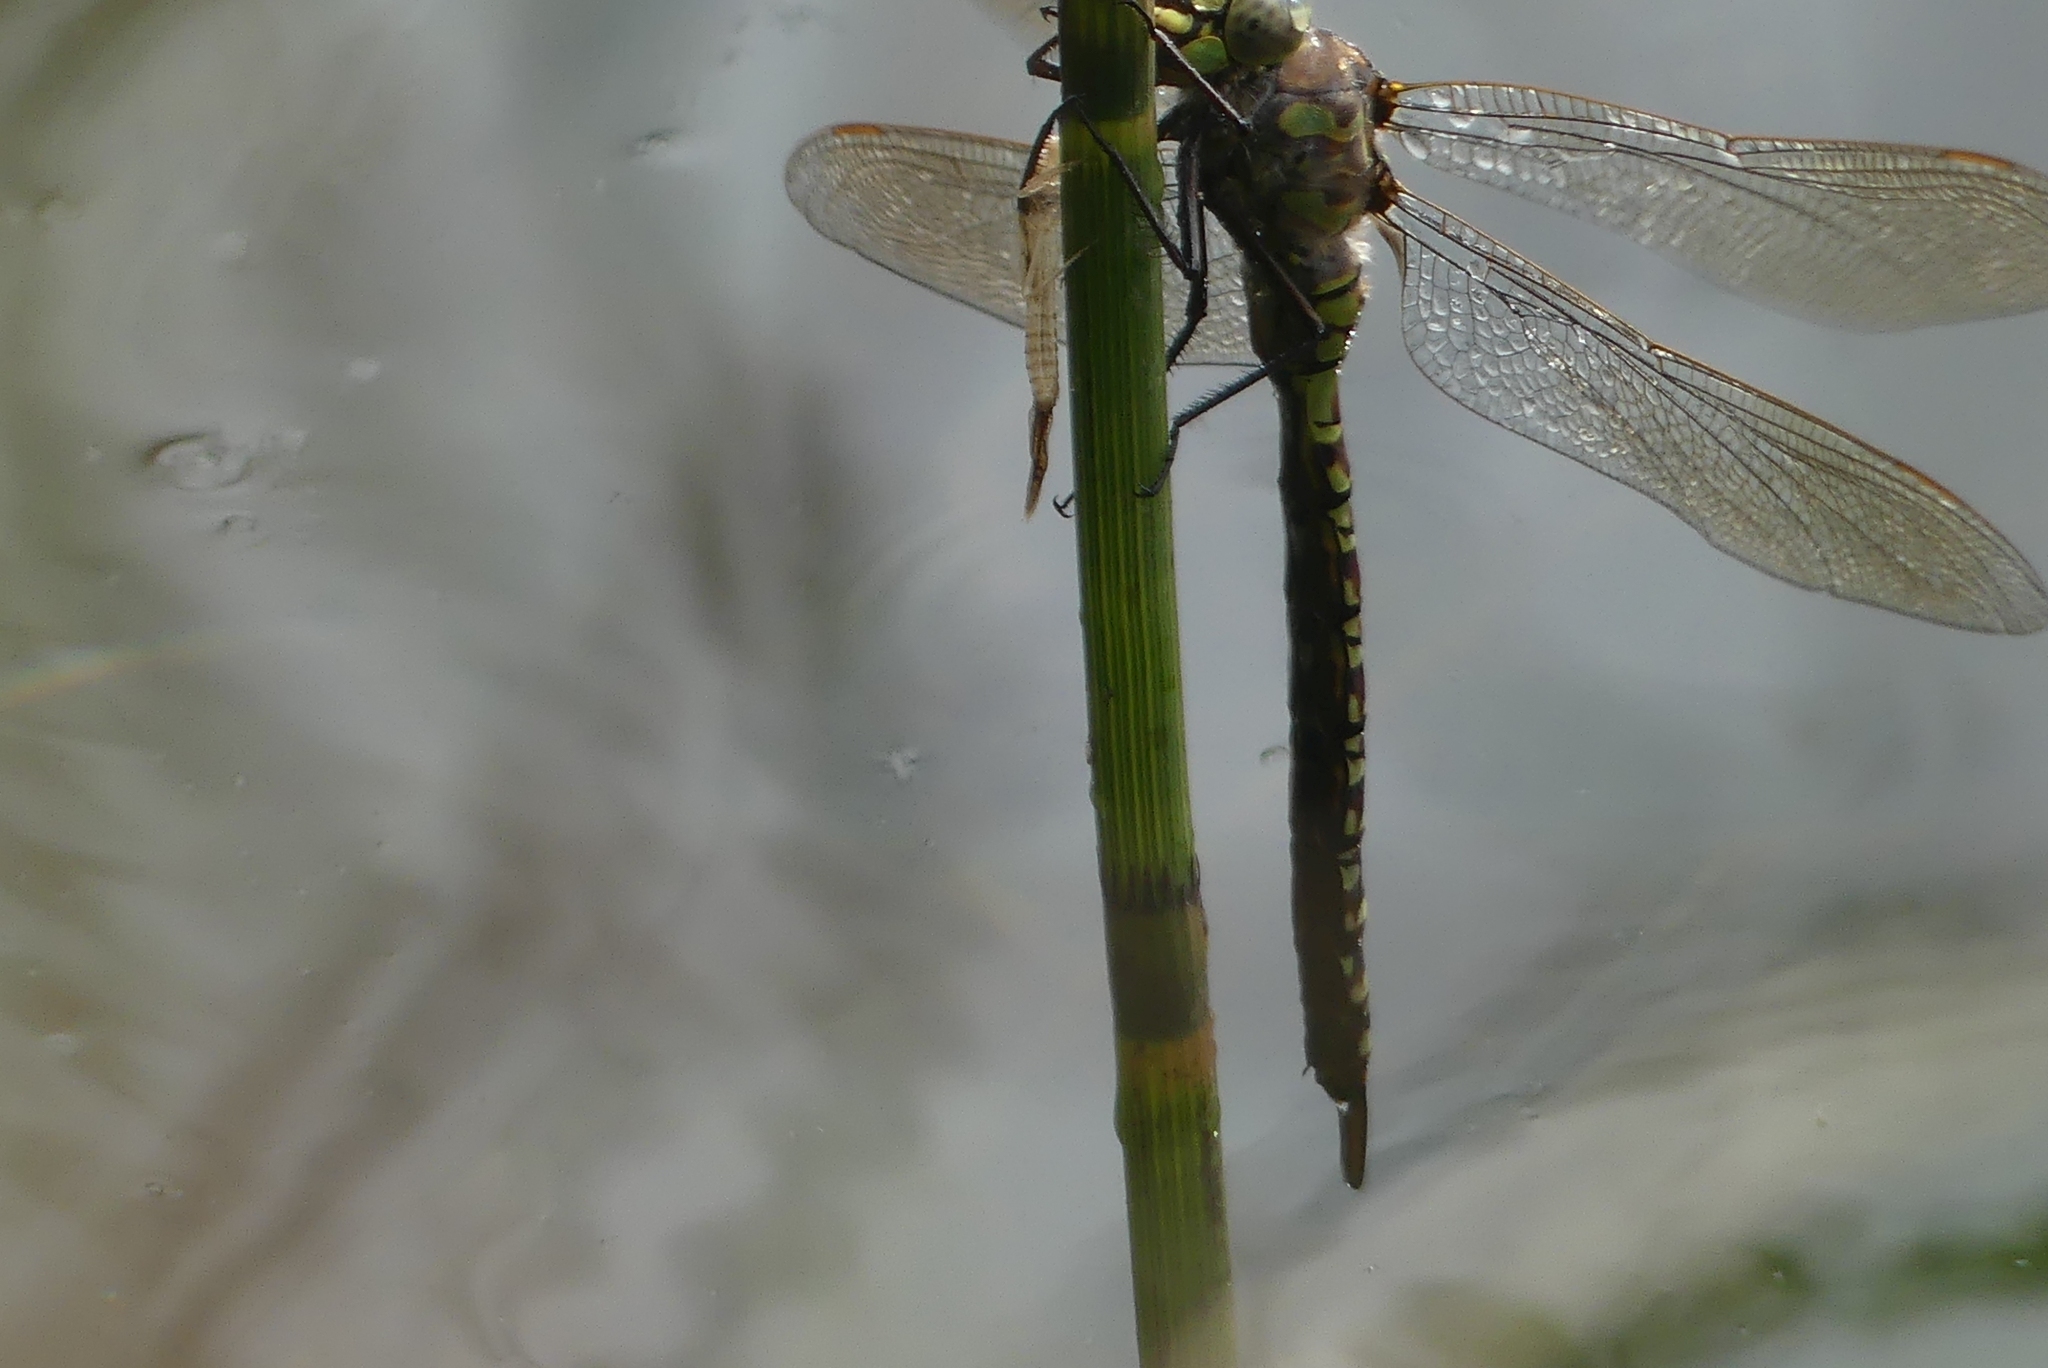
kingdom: Animalia
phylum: Arthropoda
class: Insecta
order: Odonata
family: Aeshnidae
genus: Aeshna
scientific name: Aeshna eremita
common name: Lake darner
